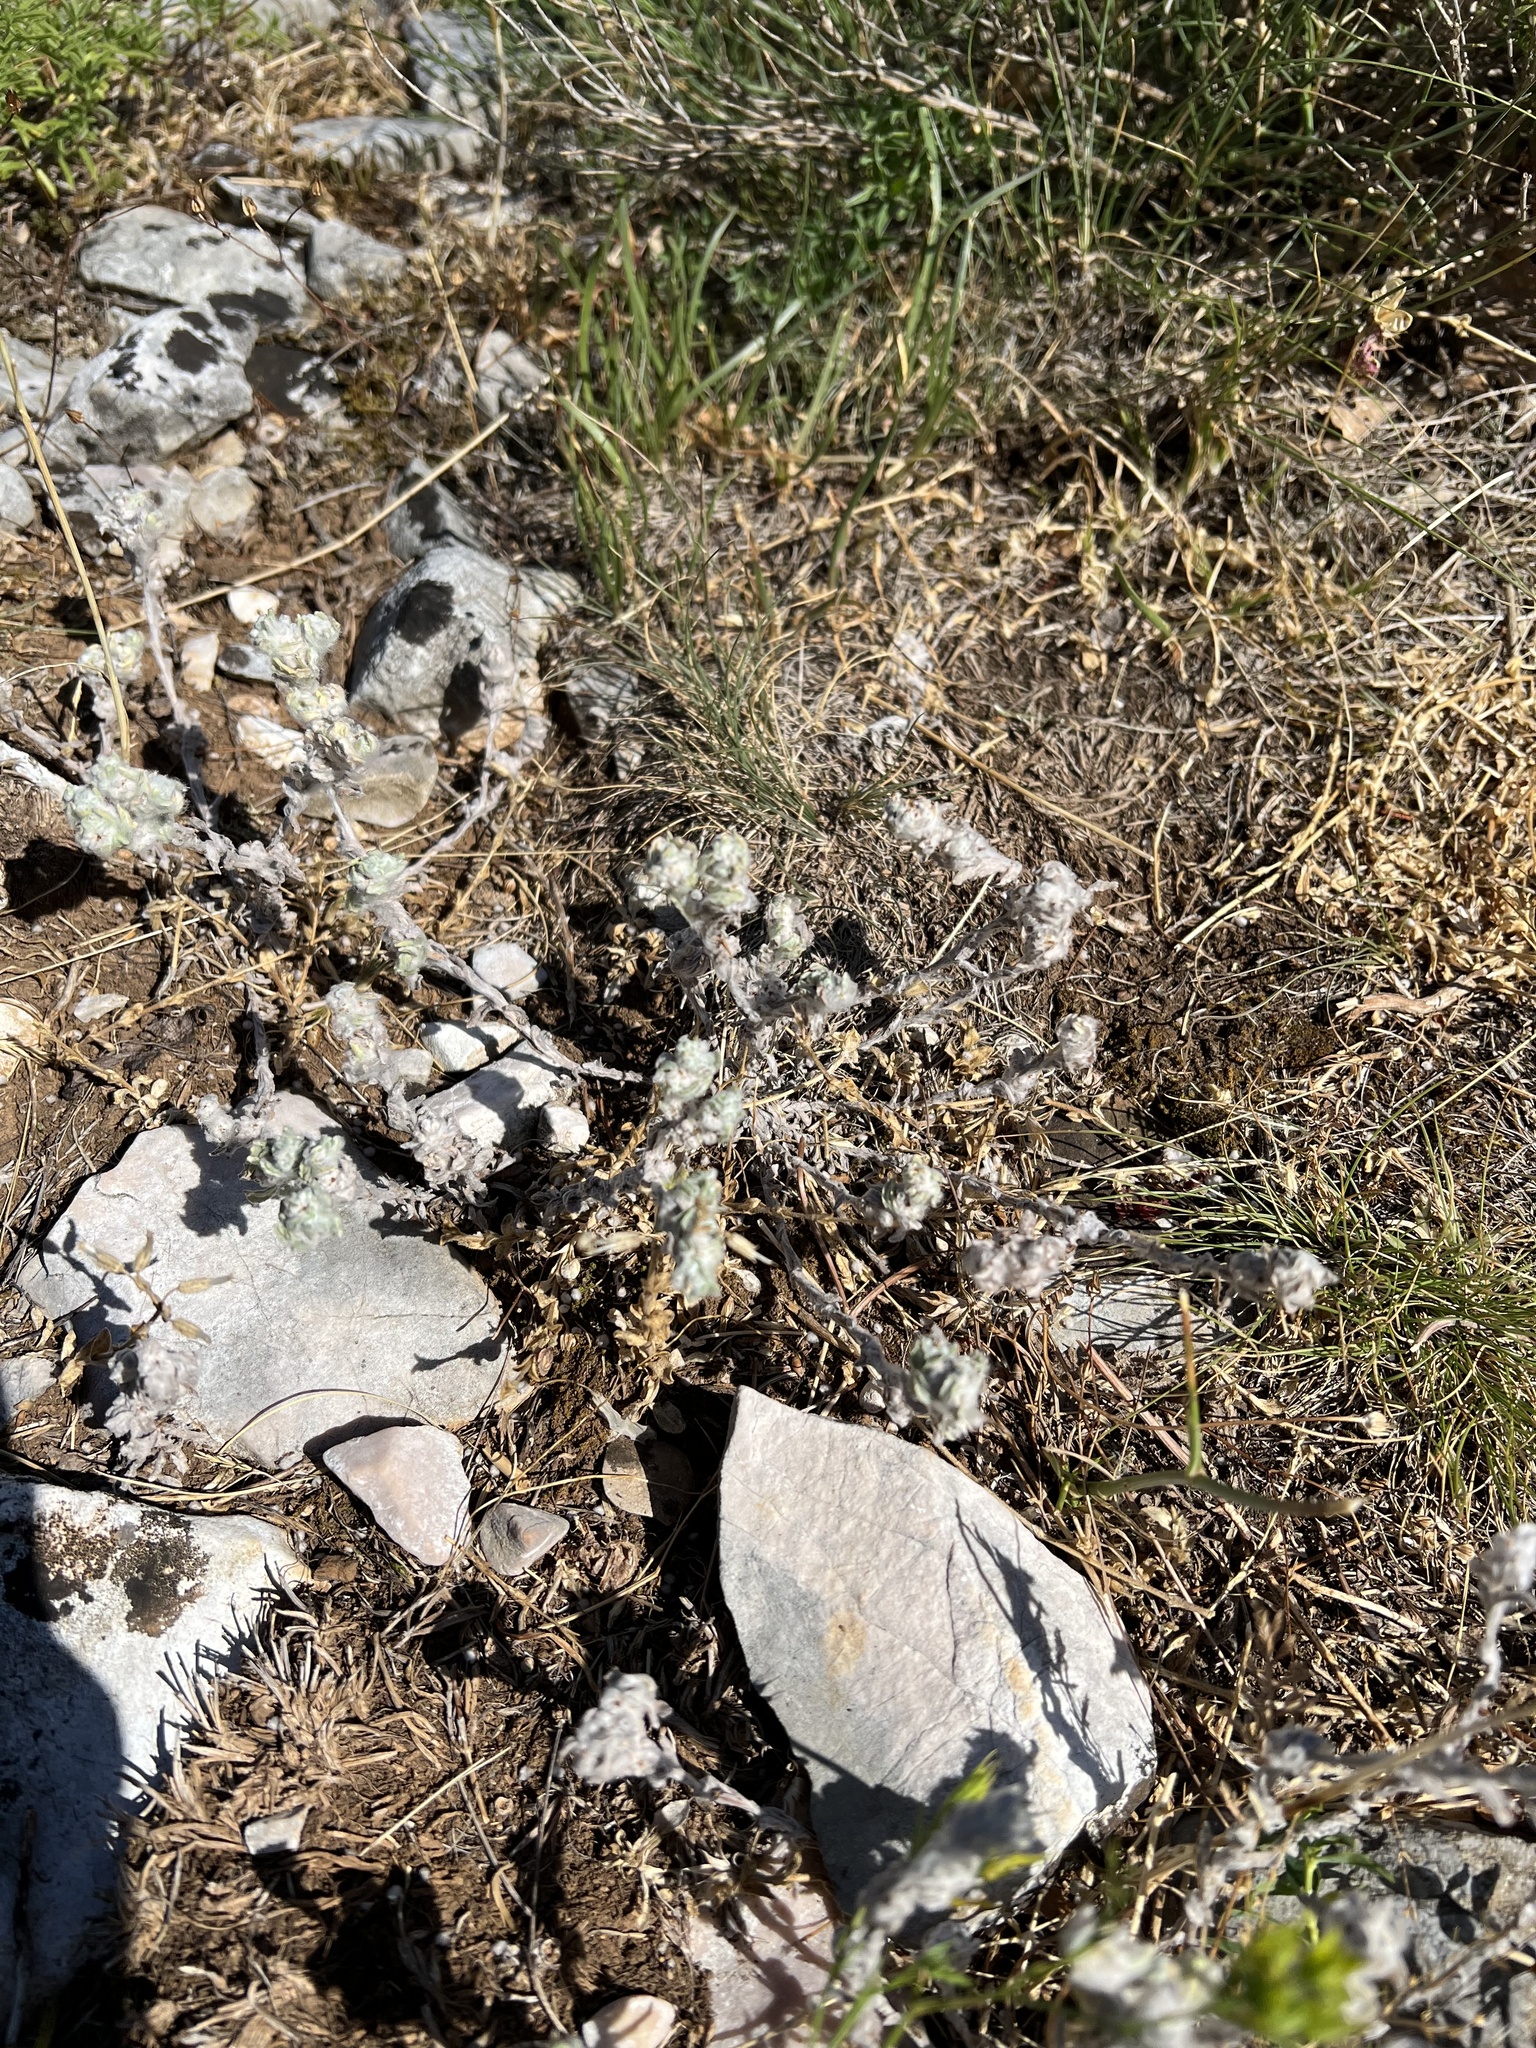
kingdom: Plantae
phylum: Tracheophyta
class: Magnoliopsida
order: Asterales
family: Asteraceae
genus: Bombycilaena
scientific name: Bombycilaena erecta
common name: Micropus
